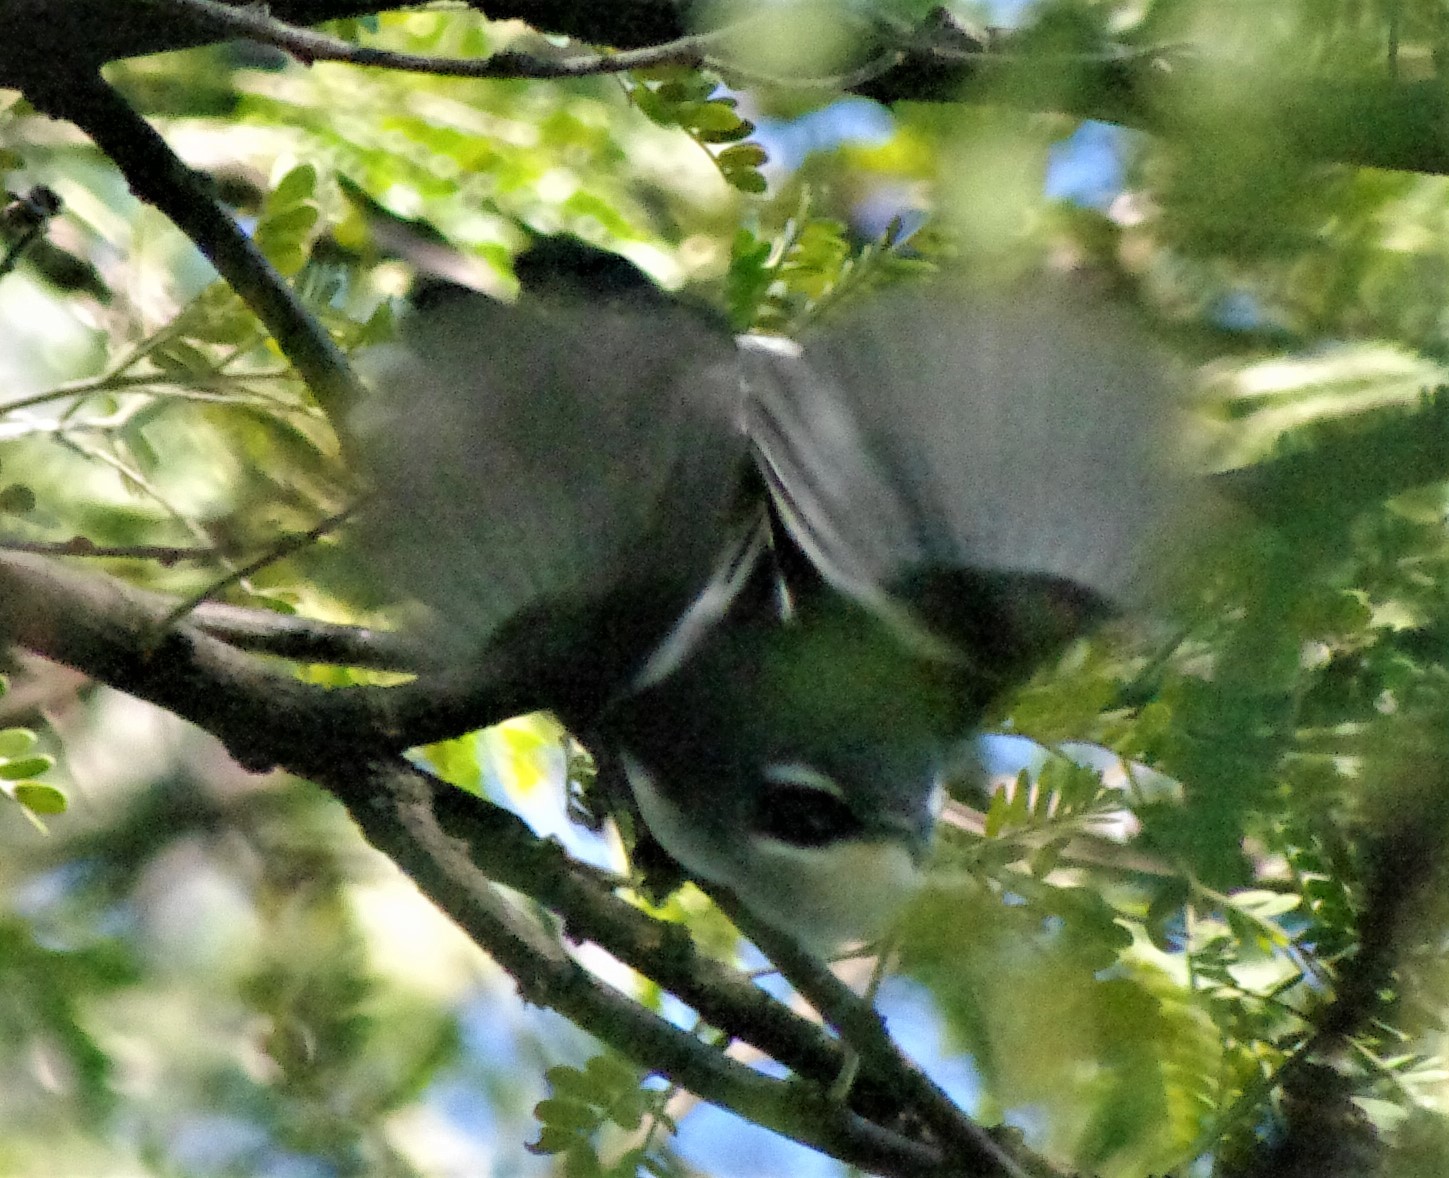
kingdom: Animalia
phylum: Chordata
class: Aves
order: Passeriformes
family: Stenostiridae
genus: Stenostira
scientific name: Stenostira scita
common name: Fairy flycatcher
